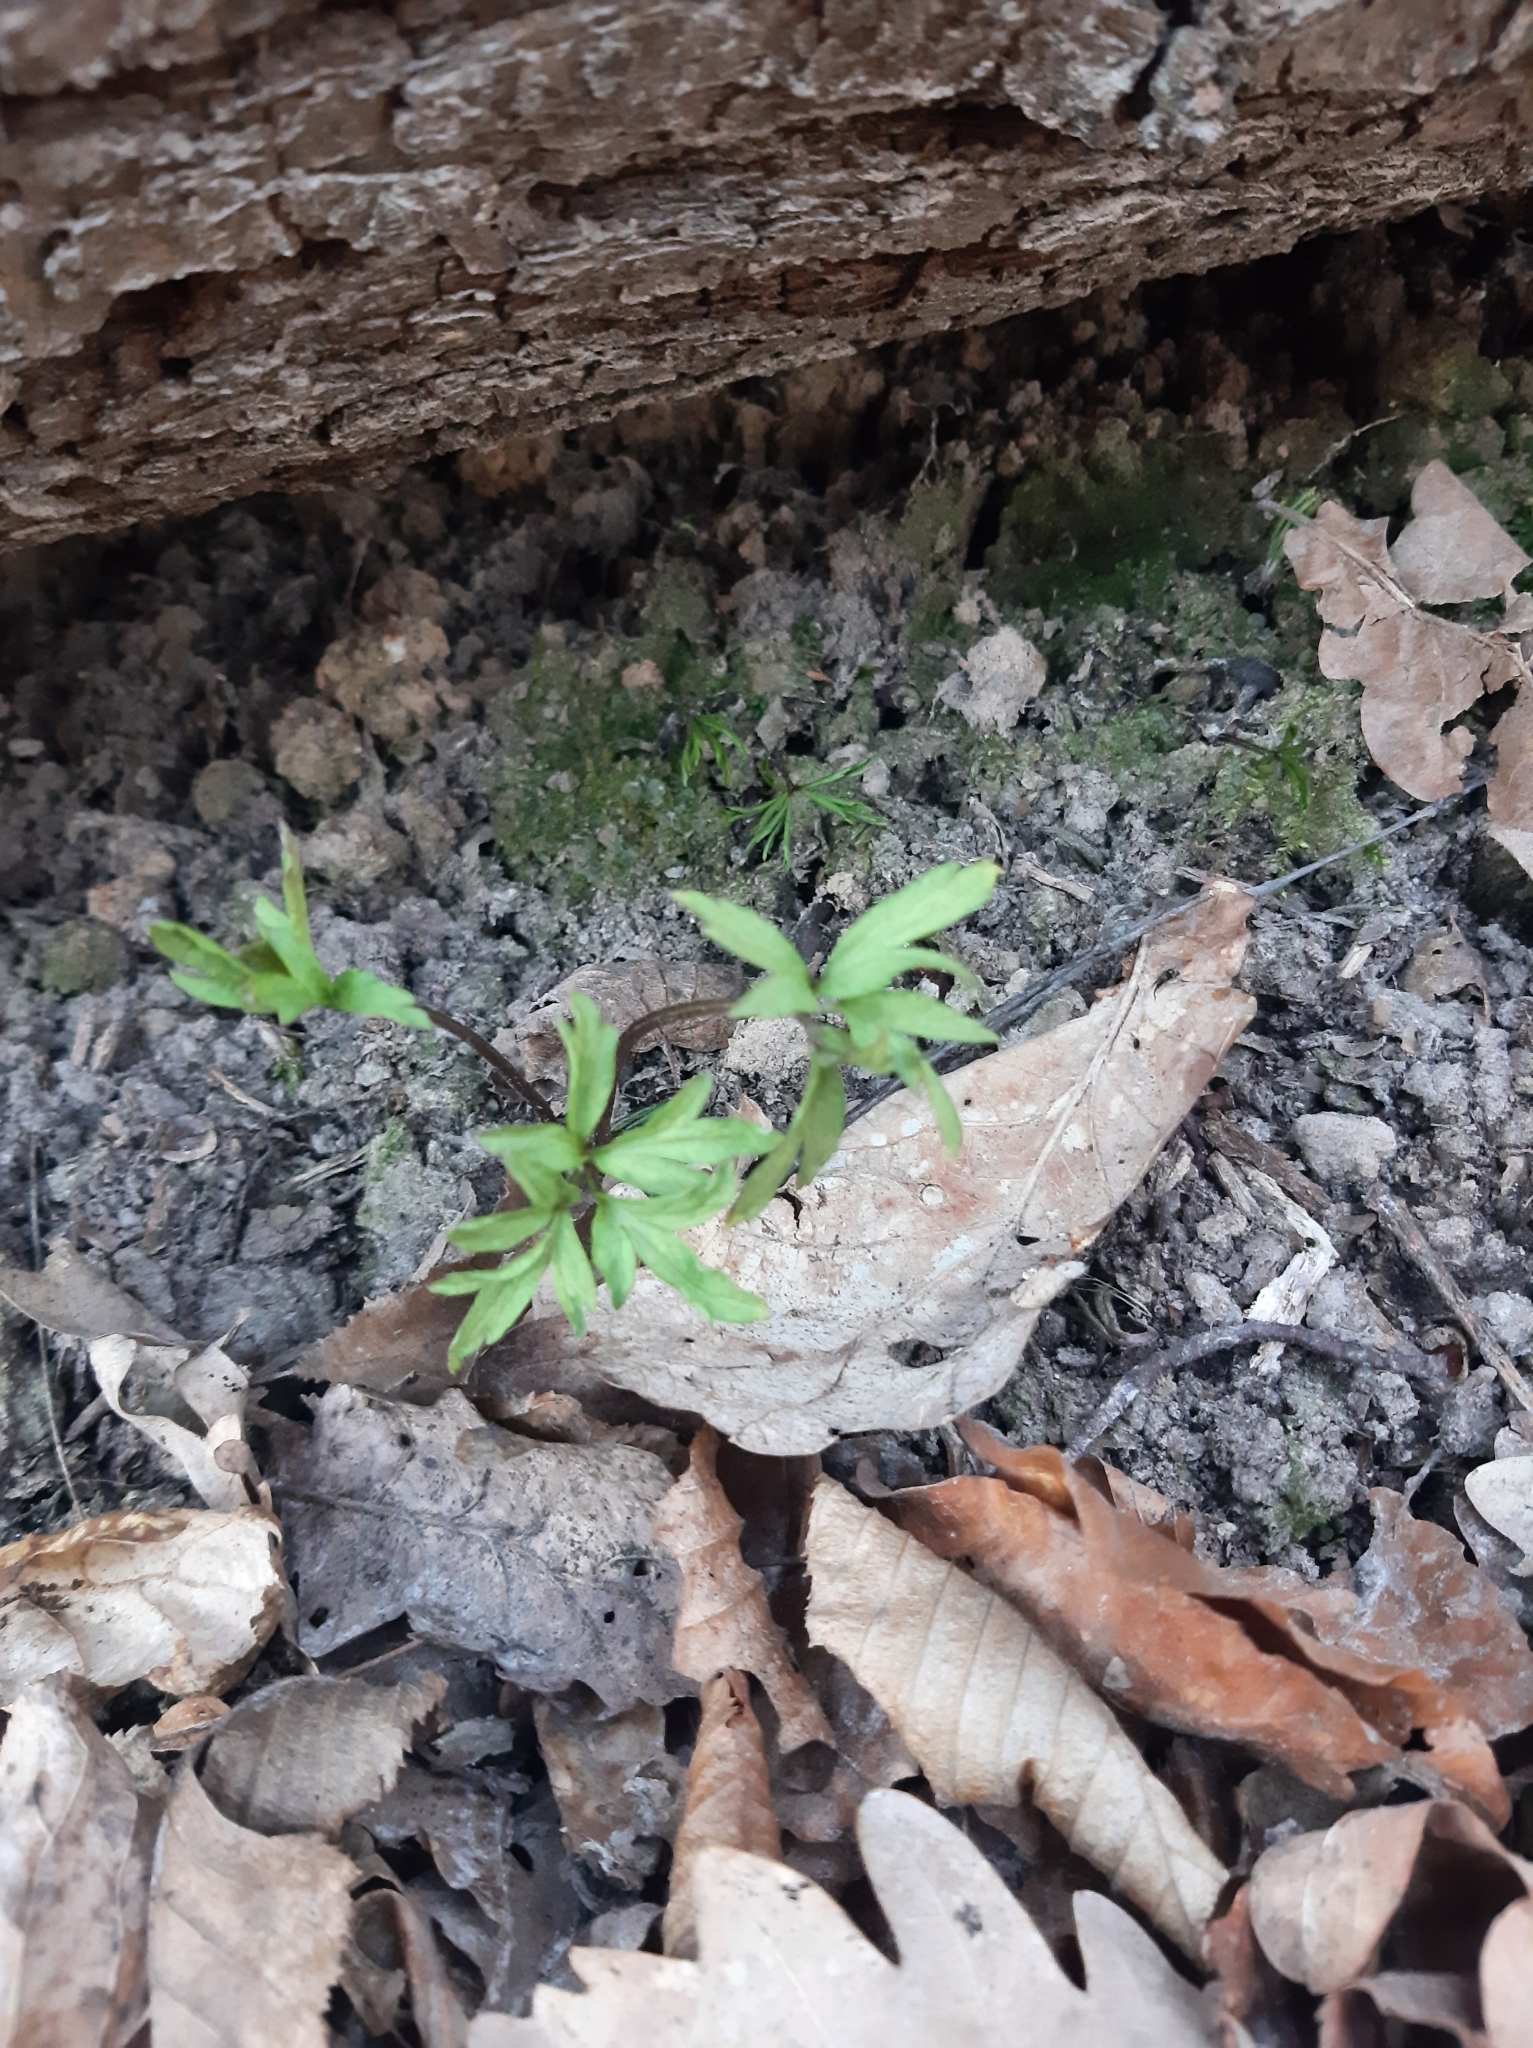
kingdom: Plantae
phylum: Tracheophyta
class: Magnoliopsida
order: Ranunculales
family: Ranunculaceae
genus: Anemone
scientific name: Anemone nemorosa
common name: Wood anemone
